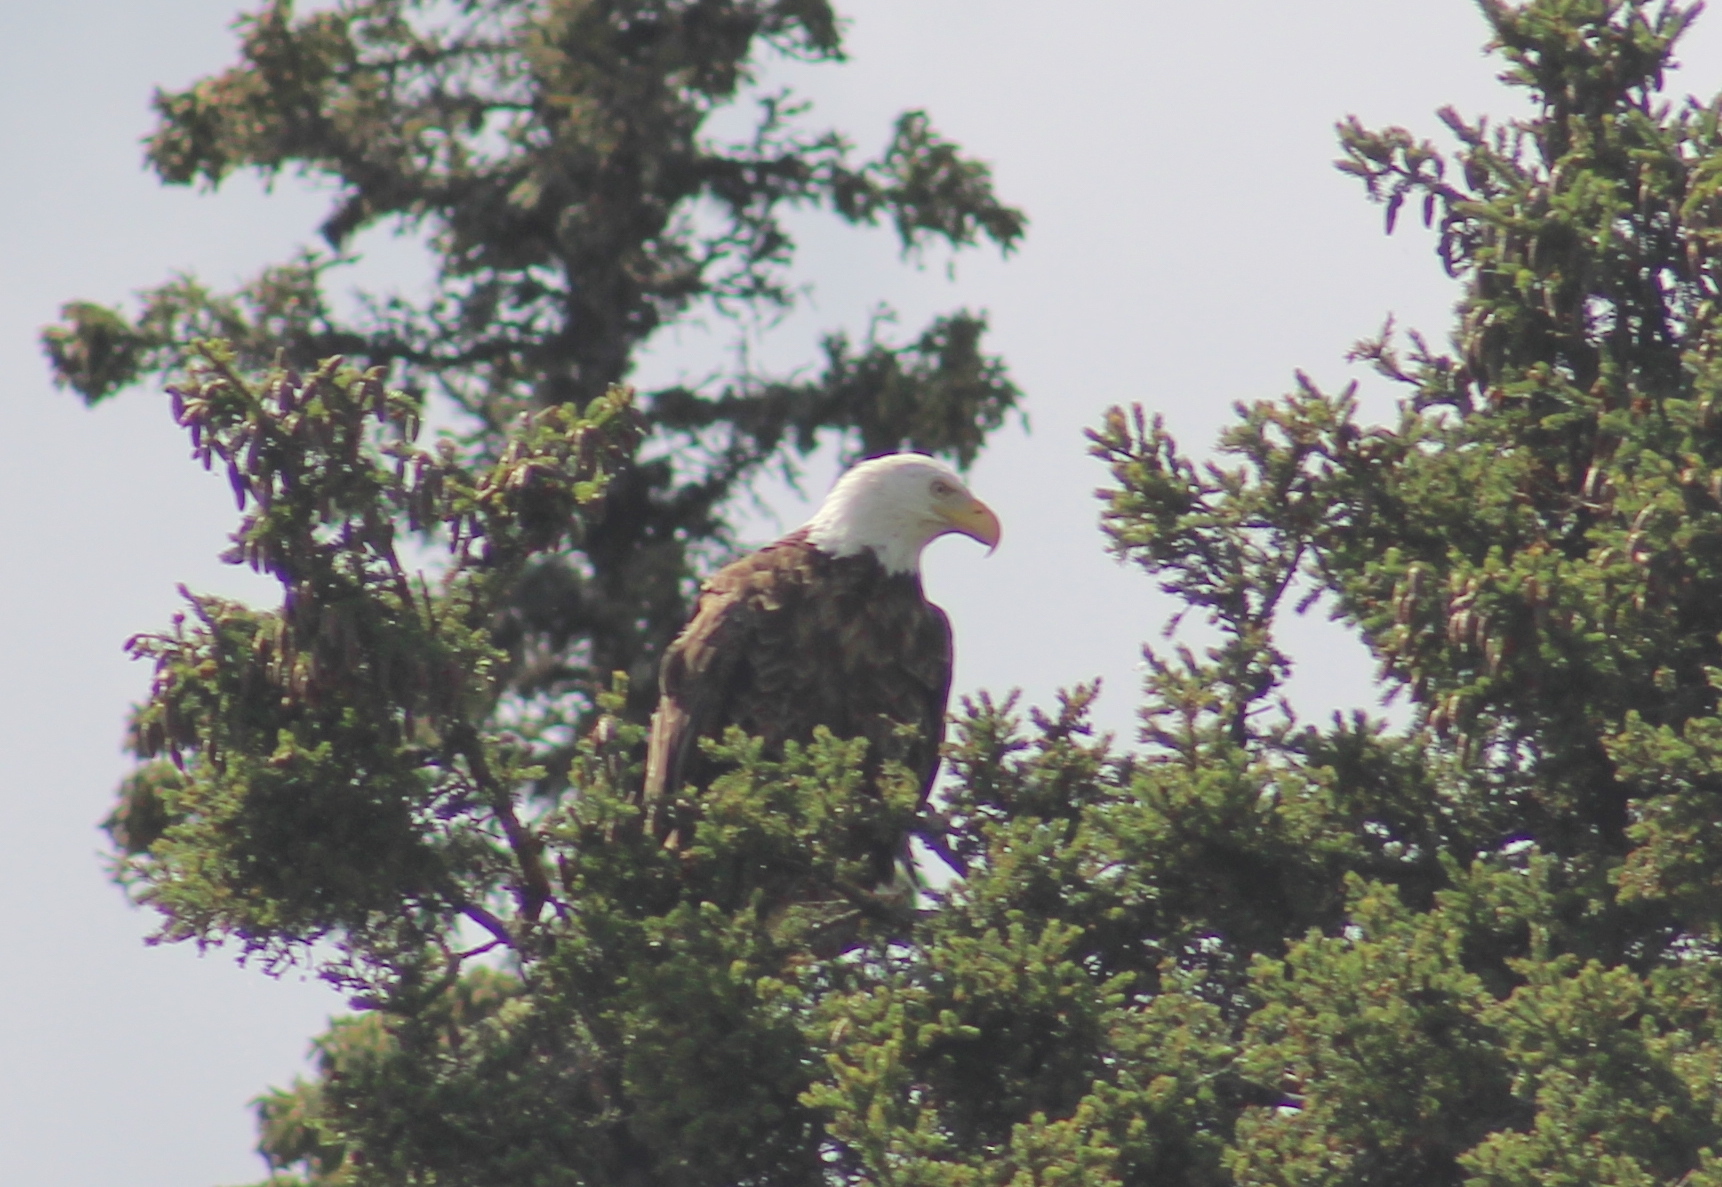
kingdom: Animalia
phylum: Chordata
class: Aves
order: Accipitriformes
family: Accipitridae
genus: Haliaeetus
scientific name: Haliaeetus leucocephalus
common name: Bald eagle
